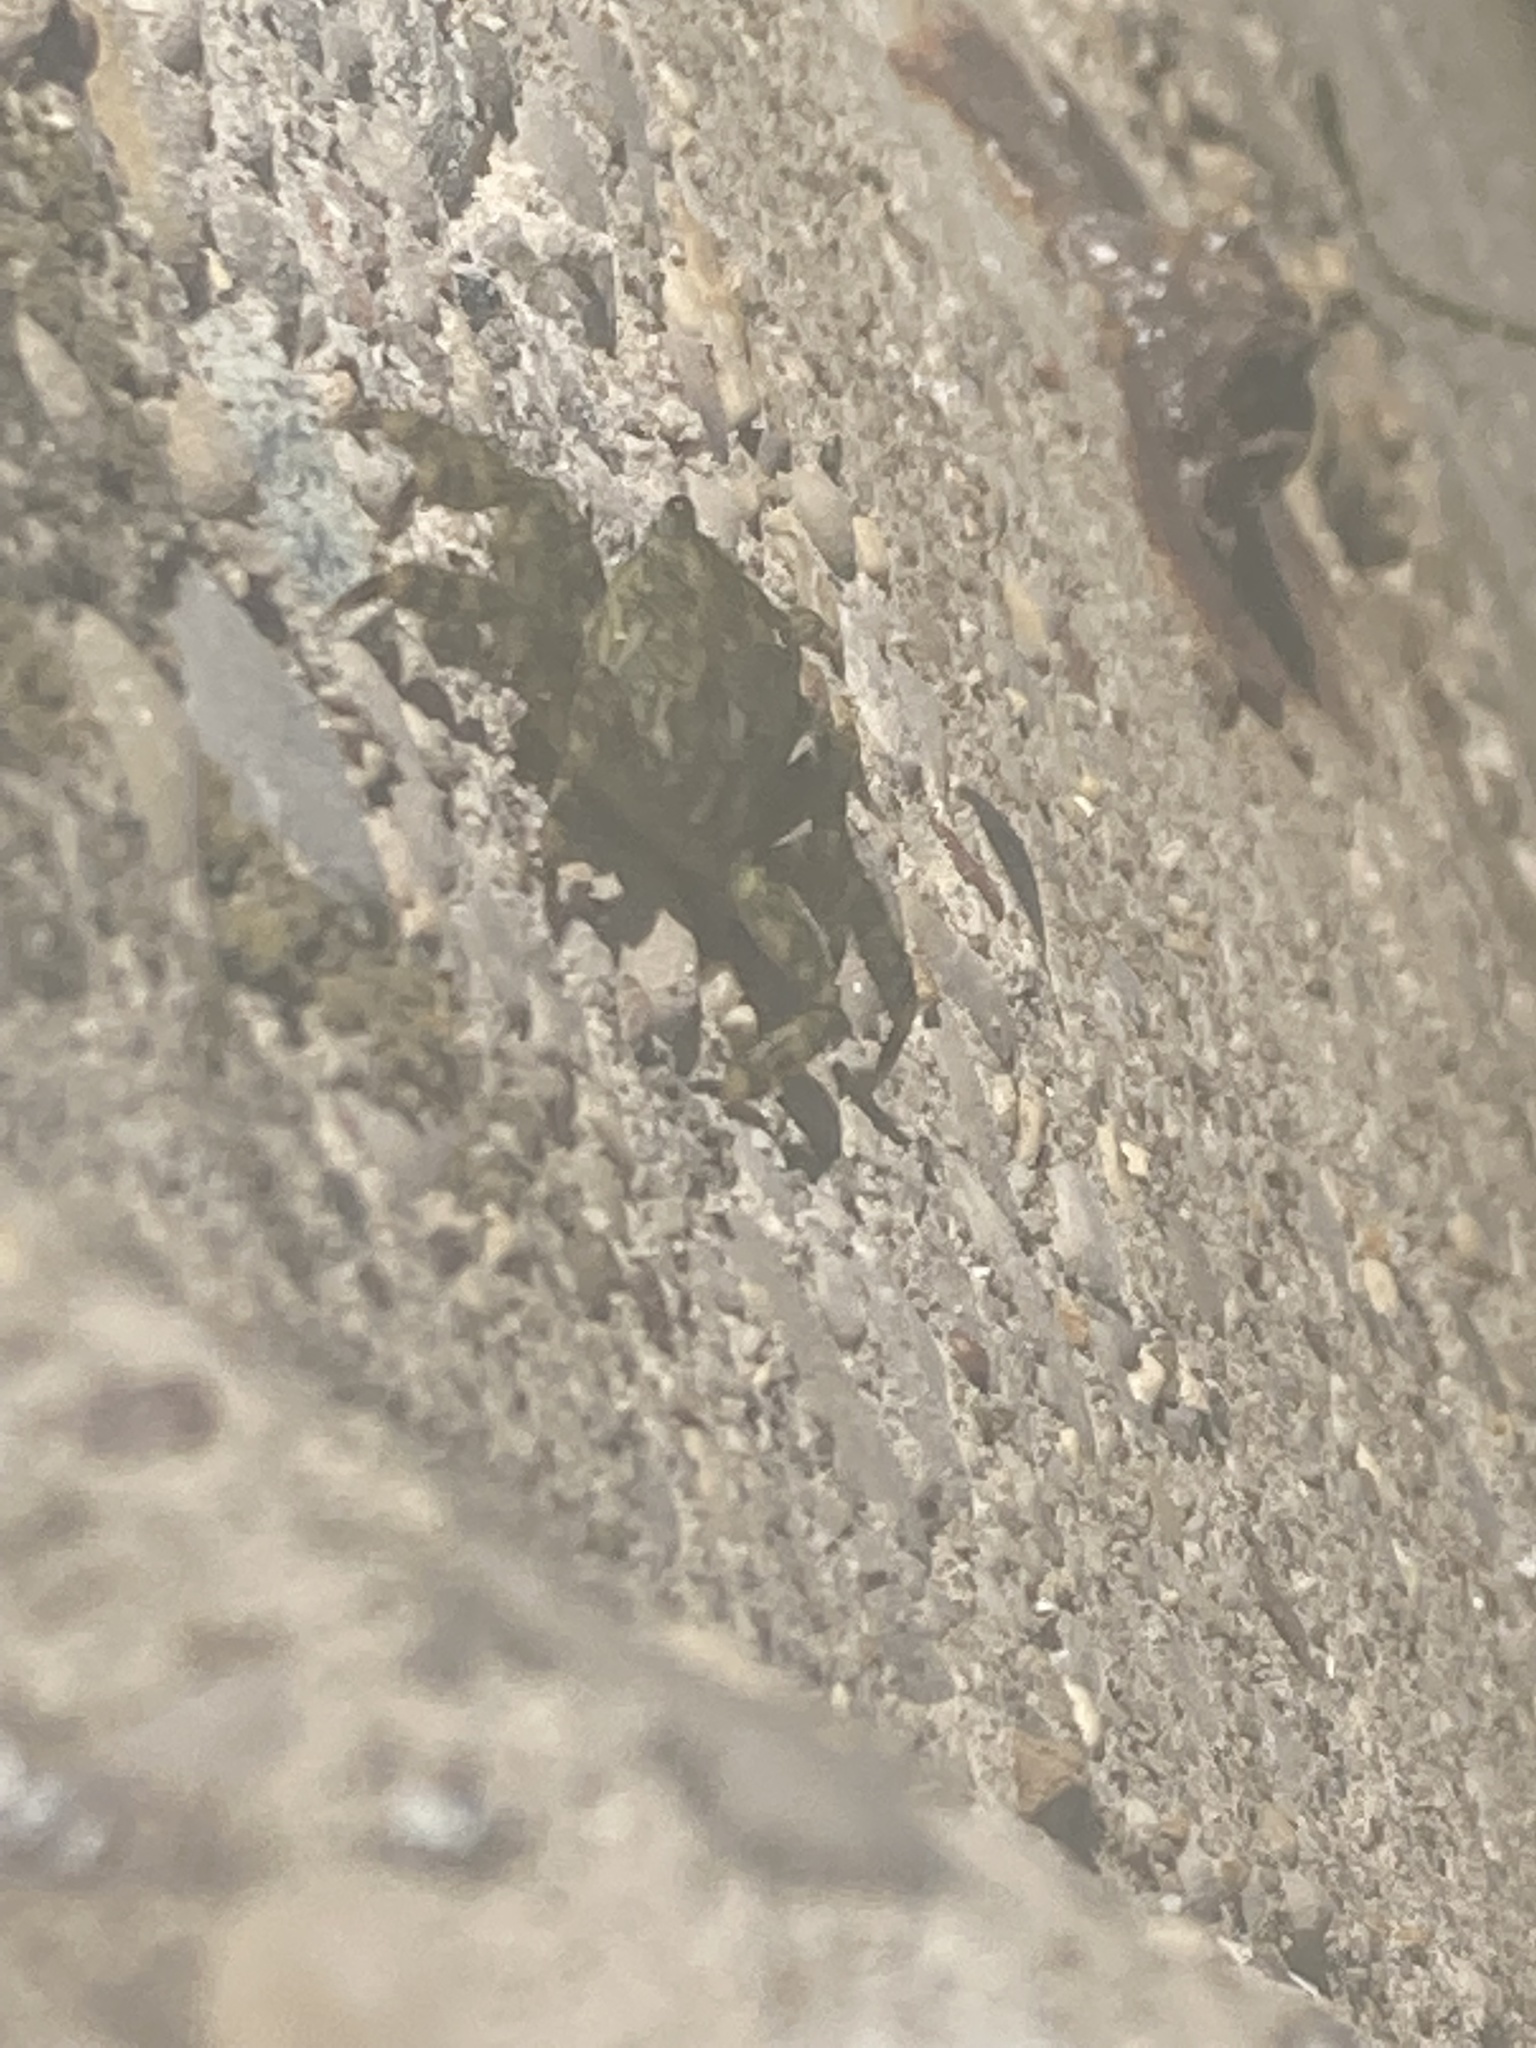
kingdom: Animalia
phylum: Arthropoda
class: Malacostraca
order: Decapoda
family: Grapsidae
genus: Pachygrapsus
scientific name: Pachygrapsus marmoratus
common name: Marbled rock crab
